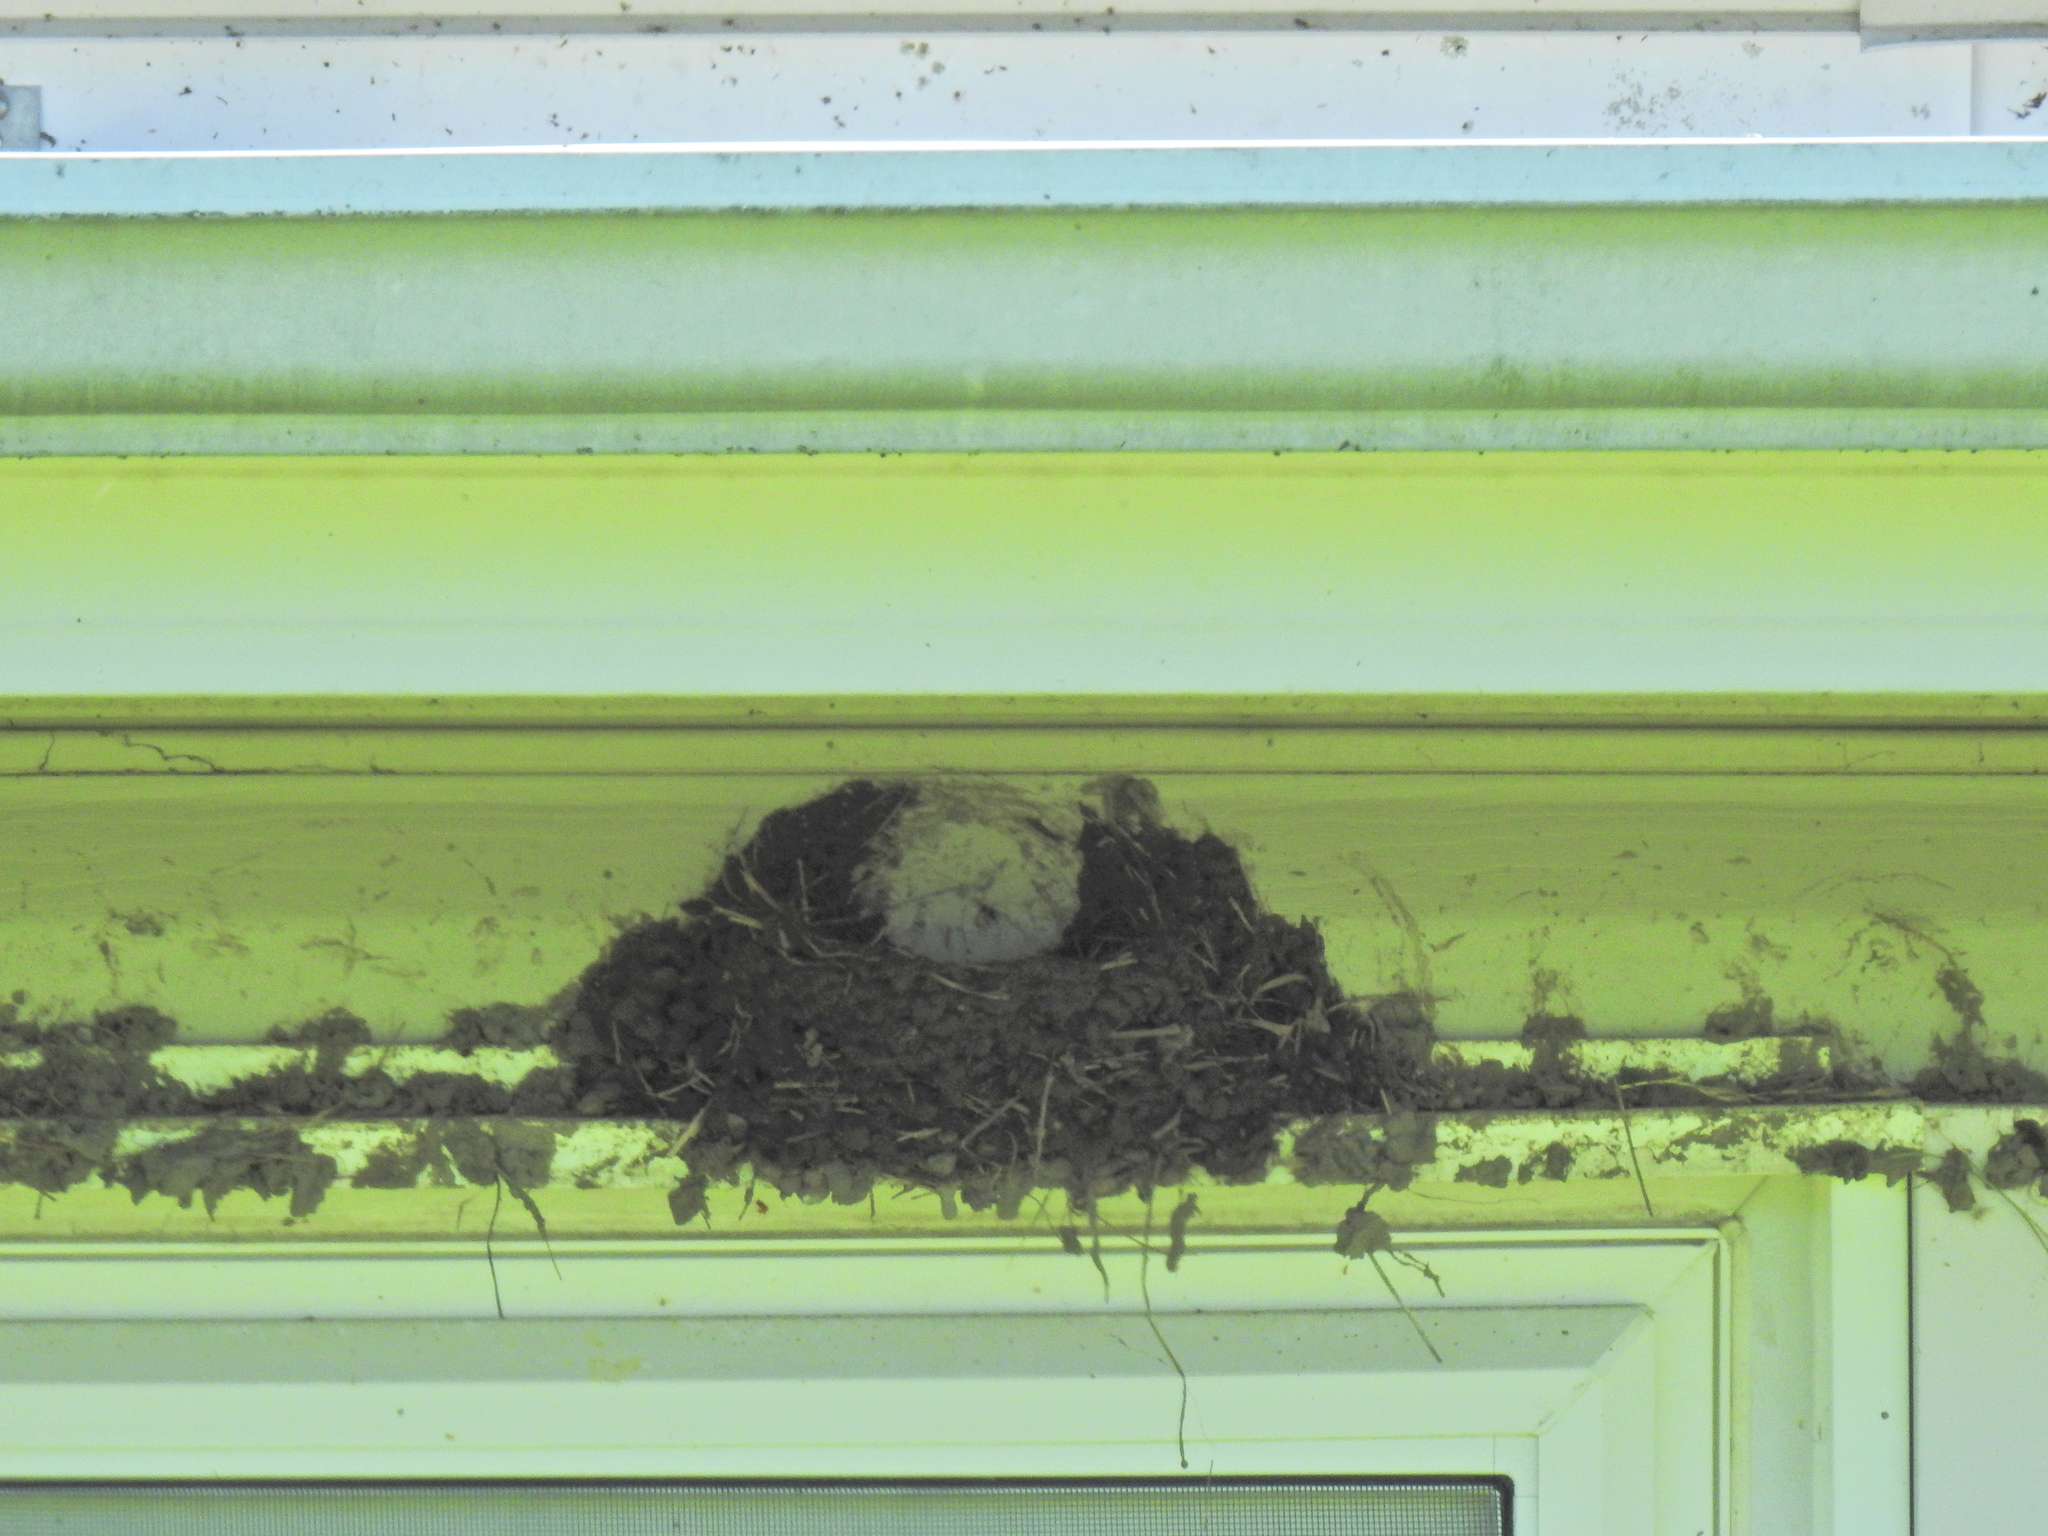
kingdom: Animalia
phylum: Chordata
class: Aves
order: Passeriformes
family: Hirundinidae
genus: Hirundo
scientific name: Hirundo rustica
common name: Barn swallow
